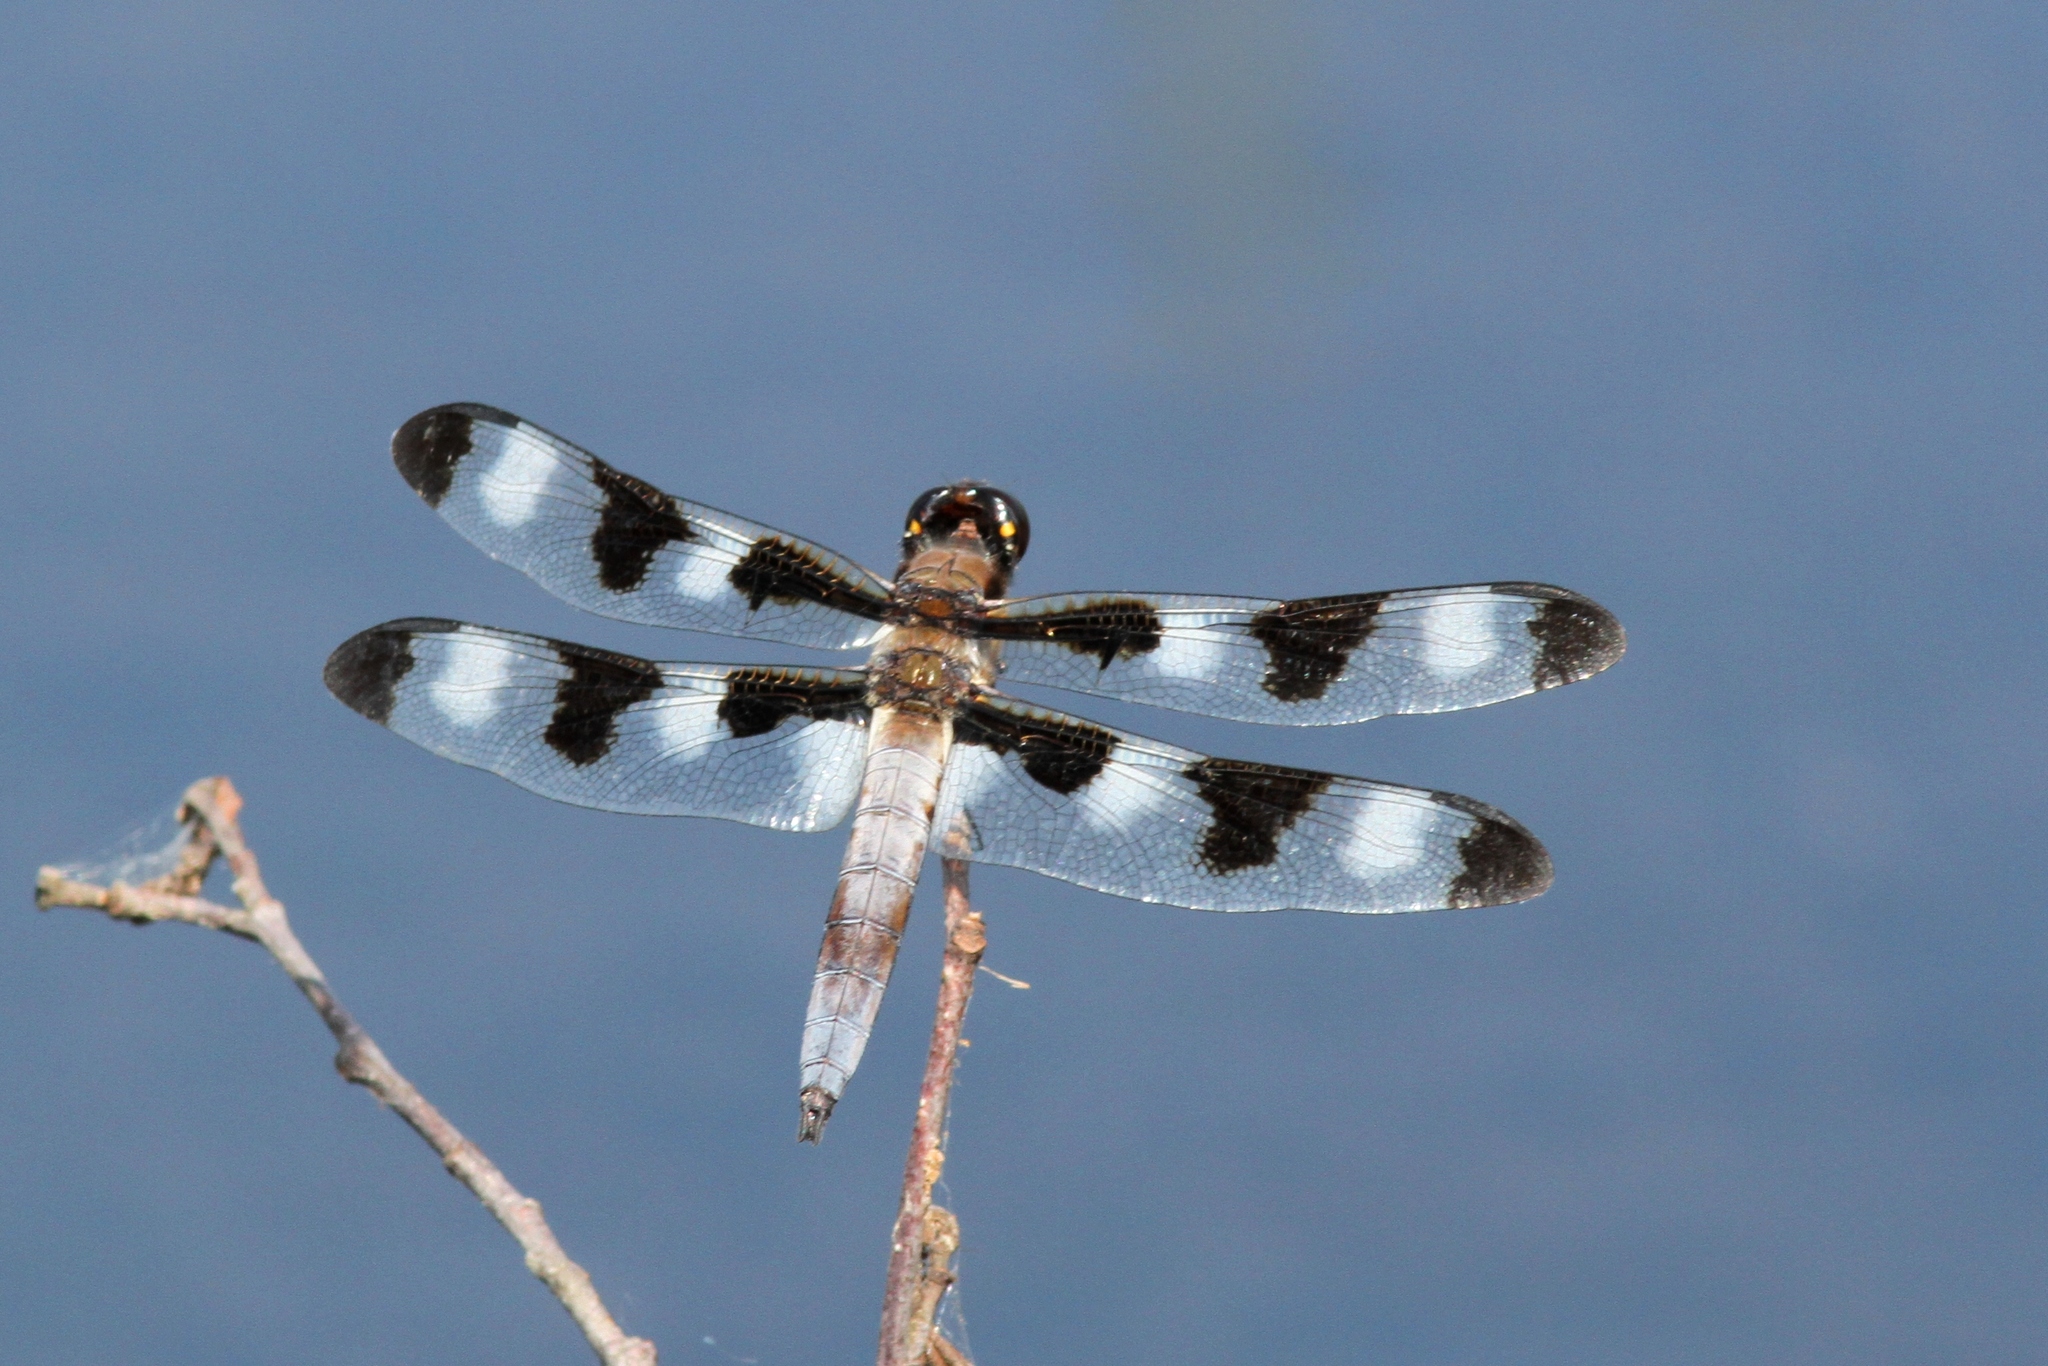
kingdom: Animalia
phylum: Arthropoda
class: Insecta
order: Odonata
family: Libellulidae
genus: Libellula
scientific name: Libellula pulchella
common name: Twelve-spotted skimmer
